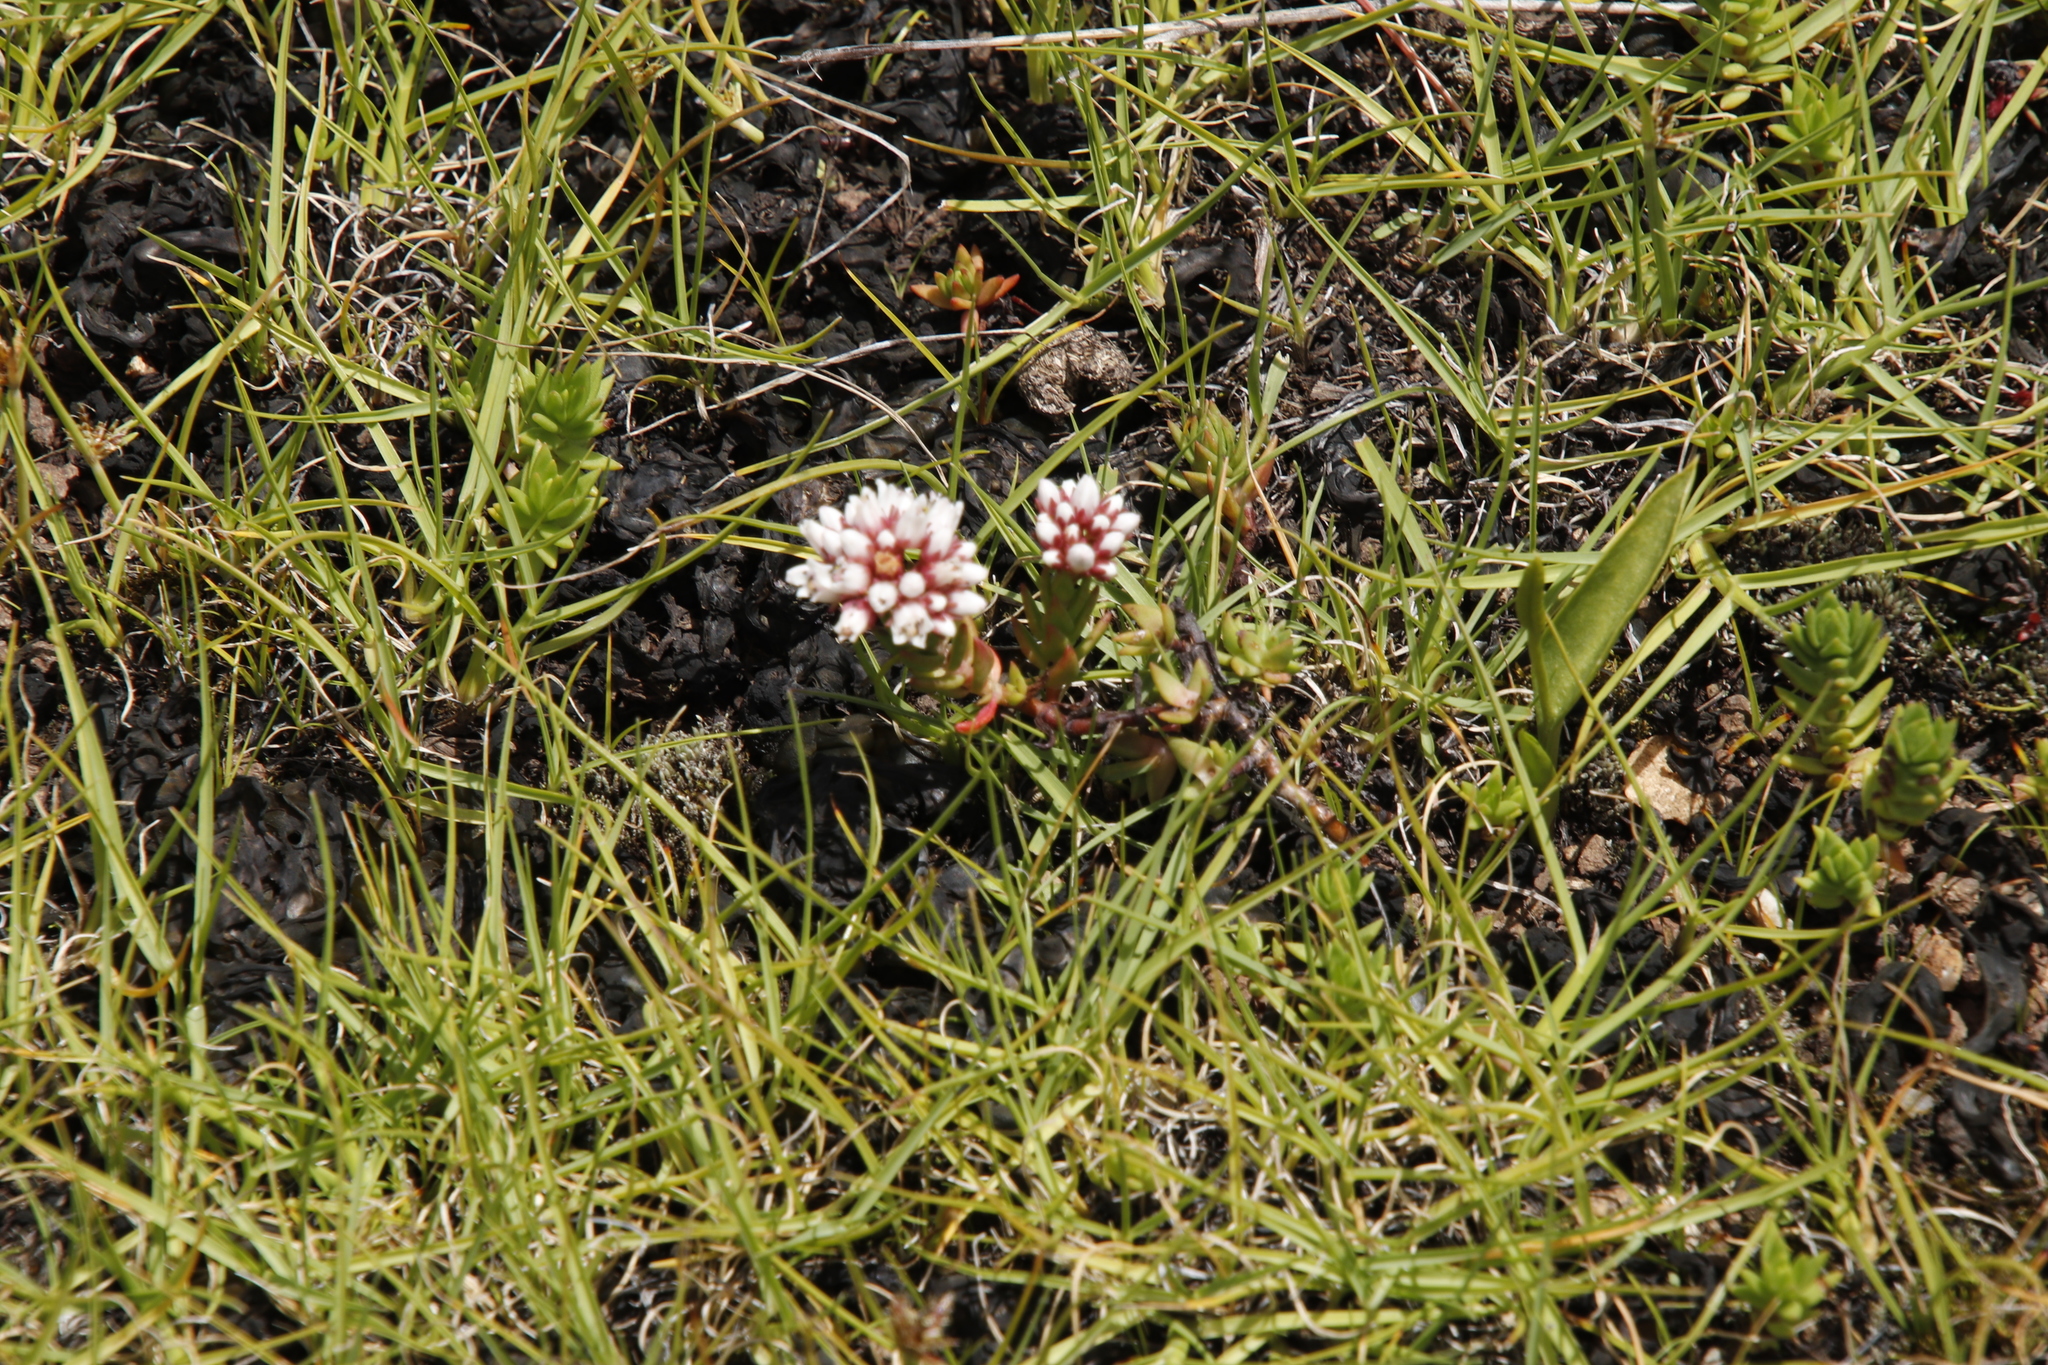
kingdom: Plantae
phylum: Tracheophyta
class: Magnoliopsida
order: Saxifragales
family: Crassulaceae
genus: Crassula
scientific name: Crassula dependens
